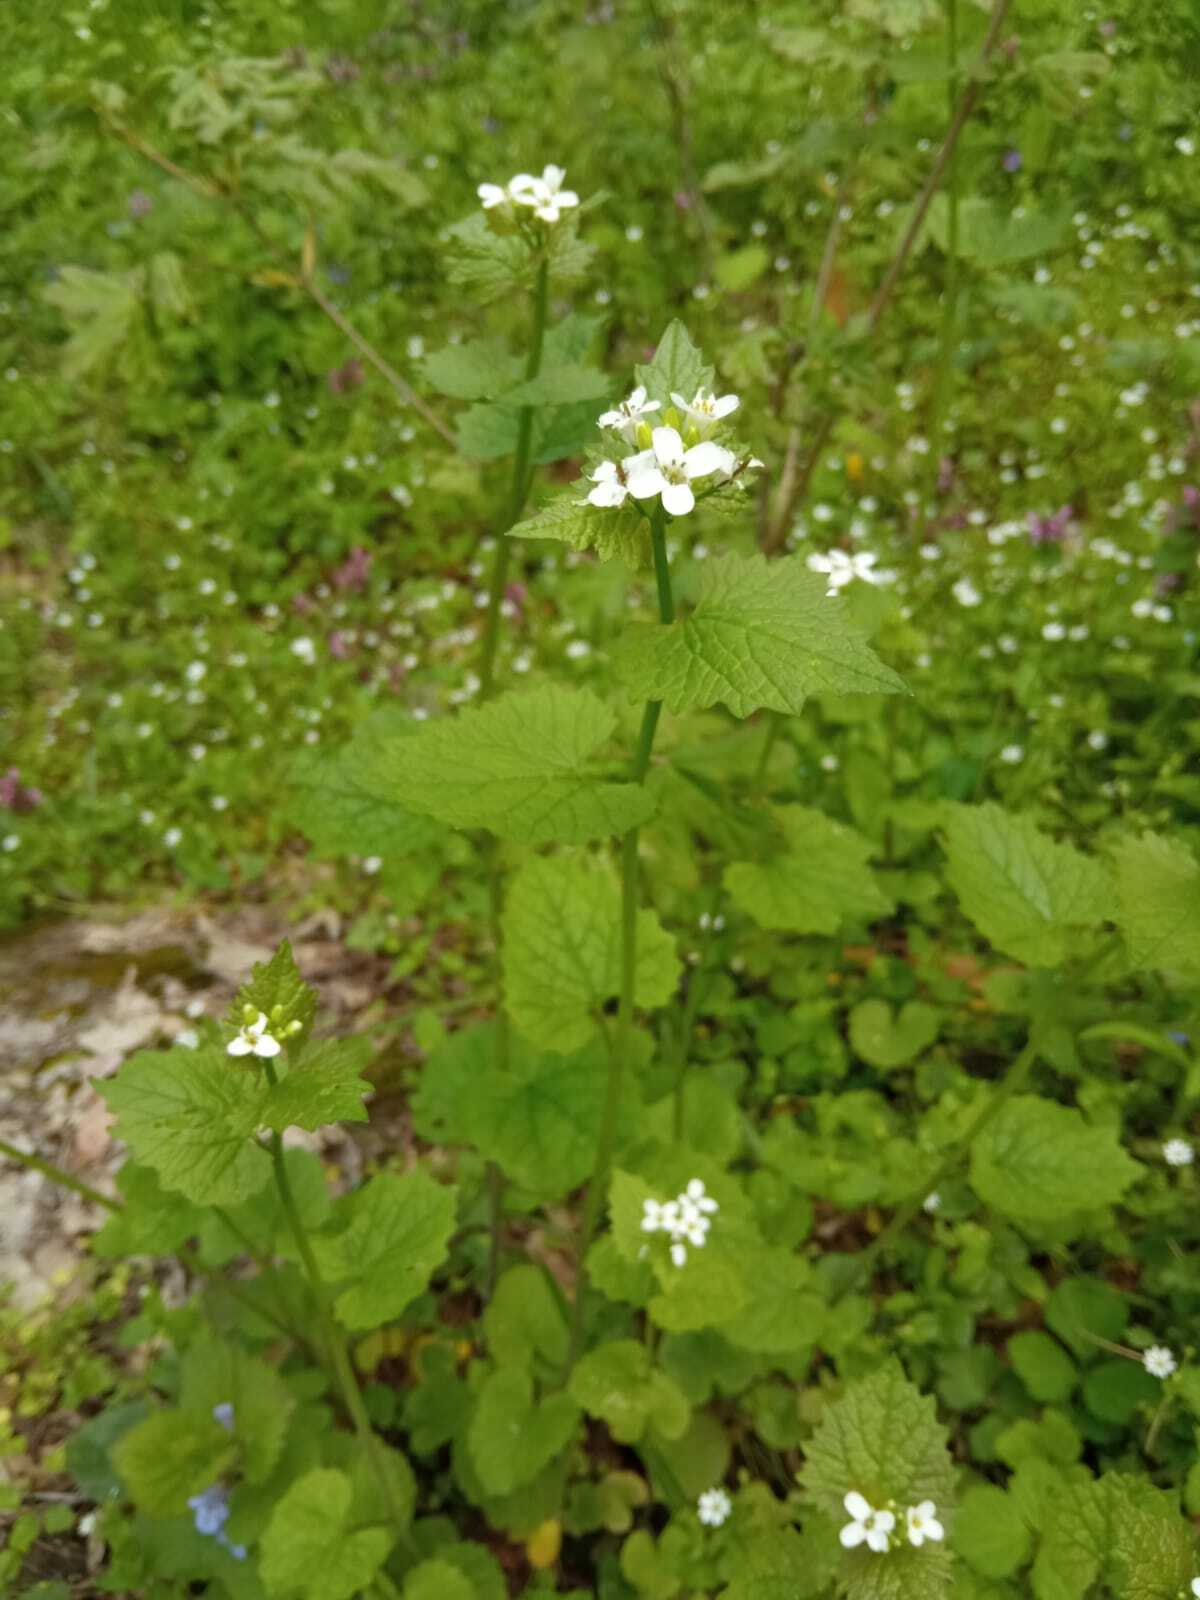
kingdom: Plantae
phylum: Tracheophyta
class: Magnoliopsida
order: Brassicales
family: Brassicaceae
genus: Alliaria
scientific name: Alliaria petiolata
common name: Garlic mustard
